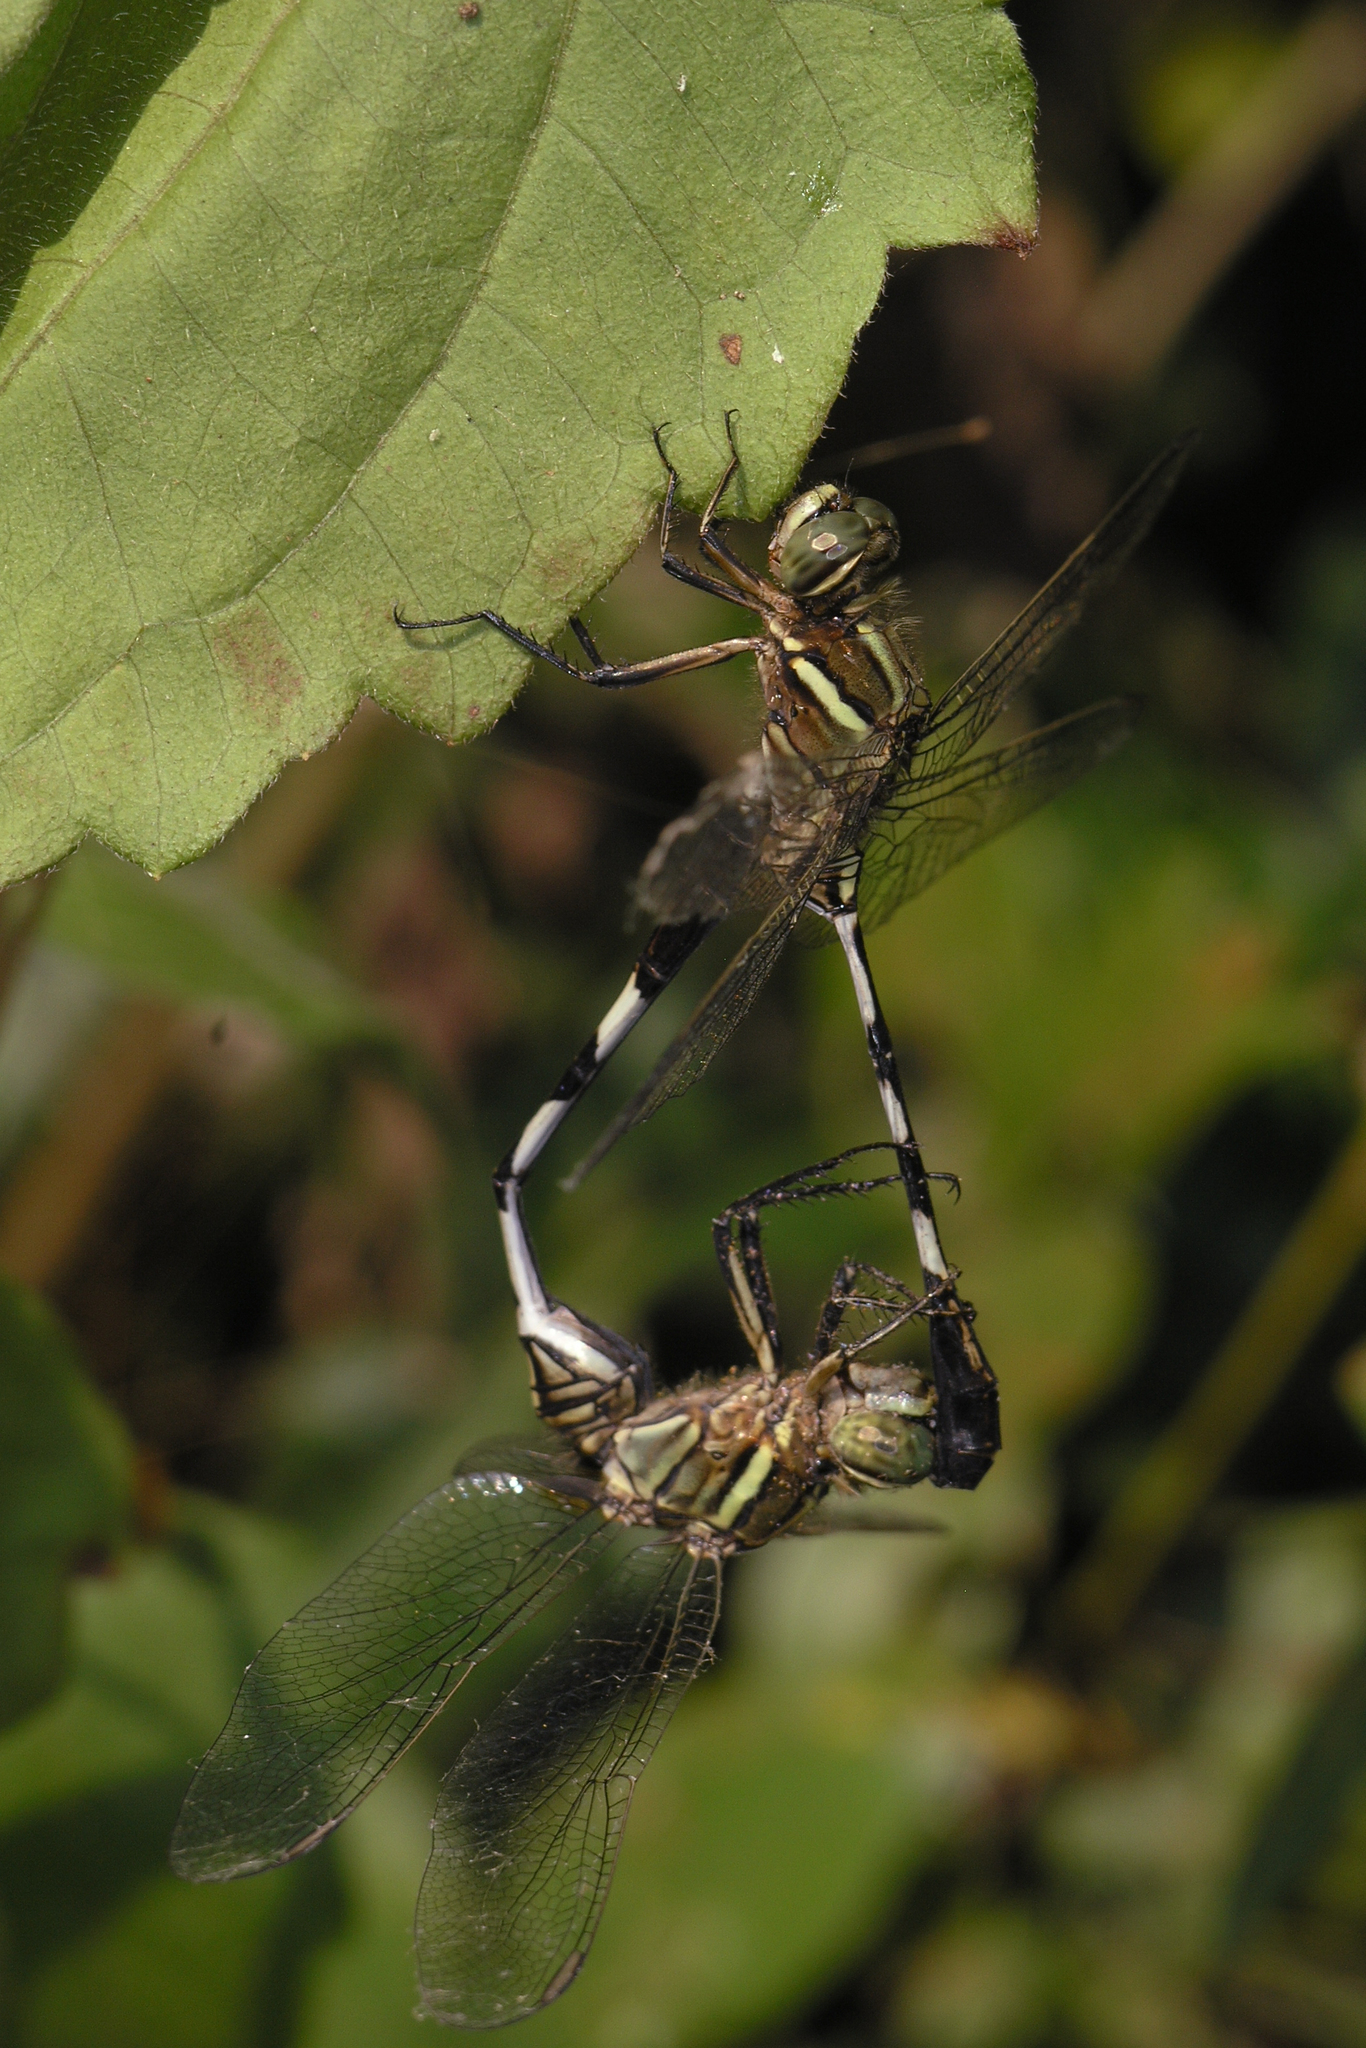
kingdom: Animalia
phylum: Arthropoda
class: Insecta
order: Odonata
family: Libellulidae
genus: Orthetrum
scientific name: Orthetrum sabina
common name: Slender skimmer
